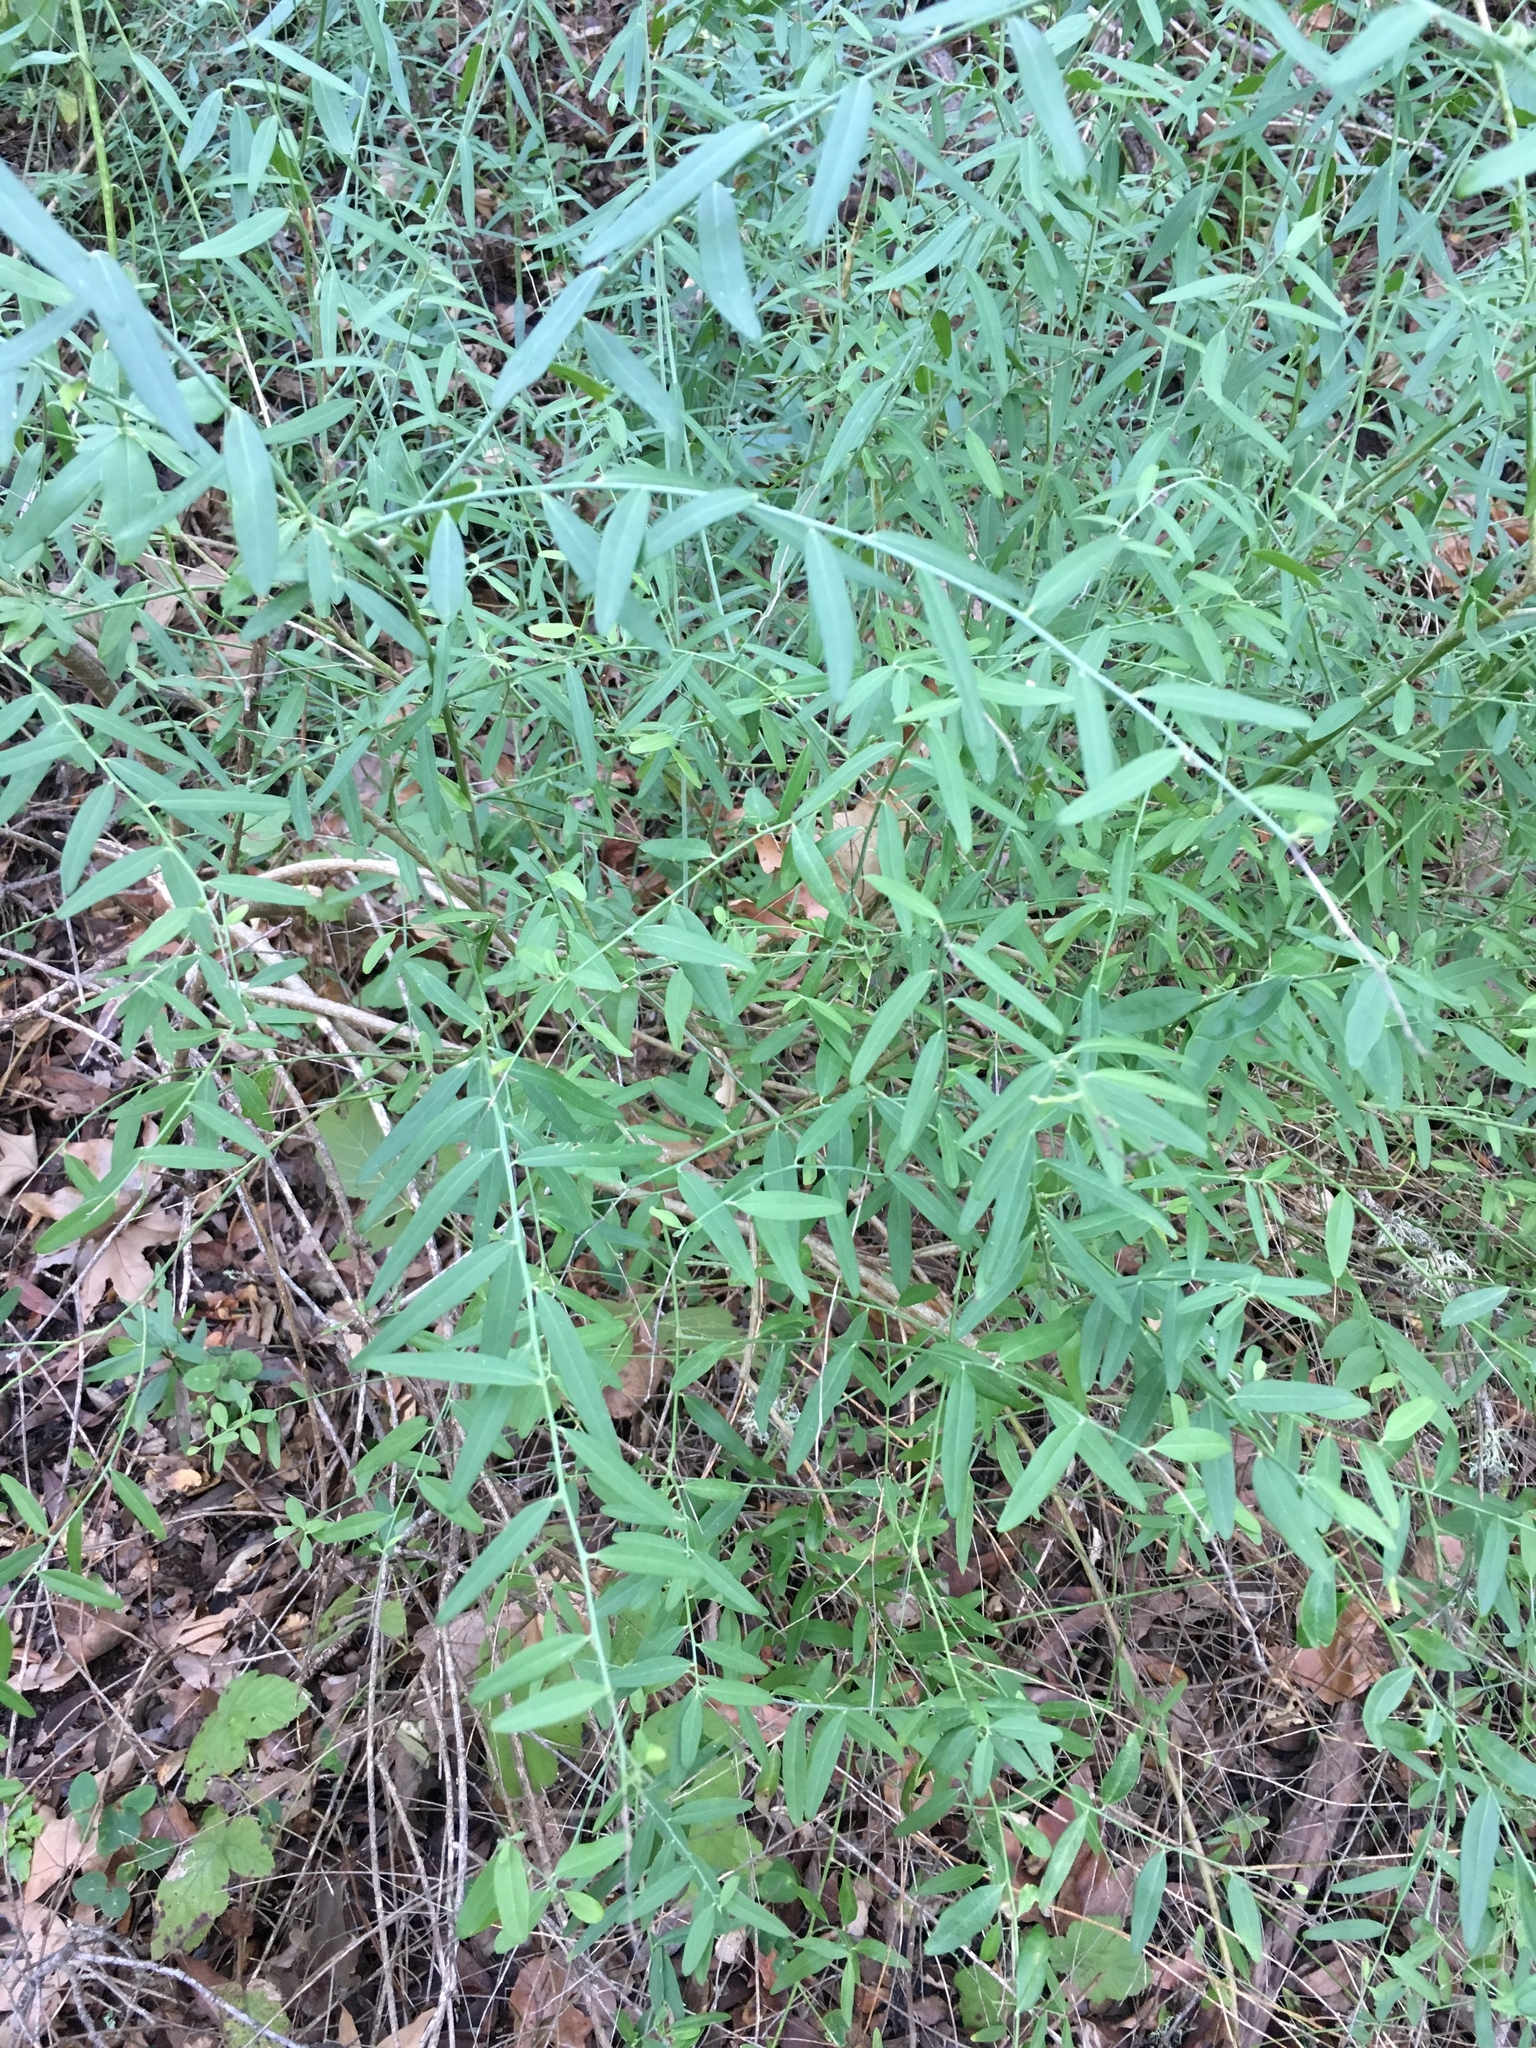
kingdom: Plantae
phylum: Tracheophyta
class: Magnoliopsida
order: Fabales
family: Polygalaceae
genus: Rhinotropis
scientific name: Rhinotropis cornuta
